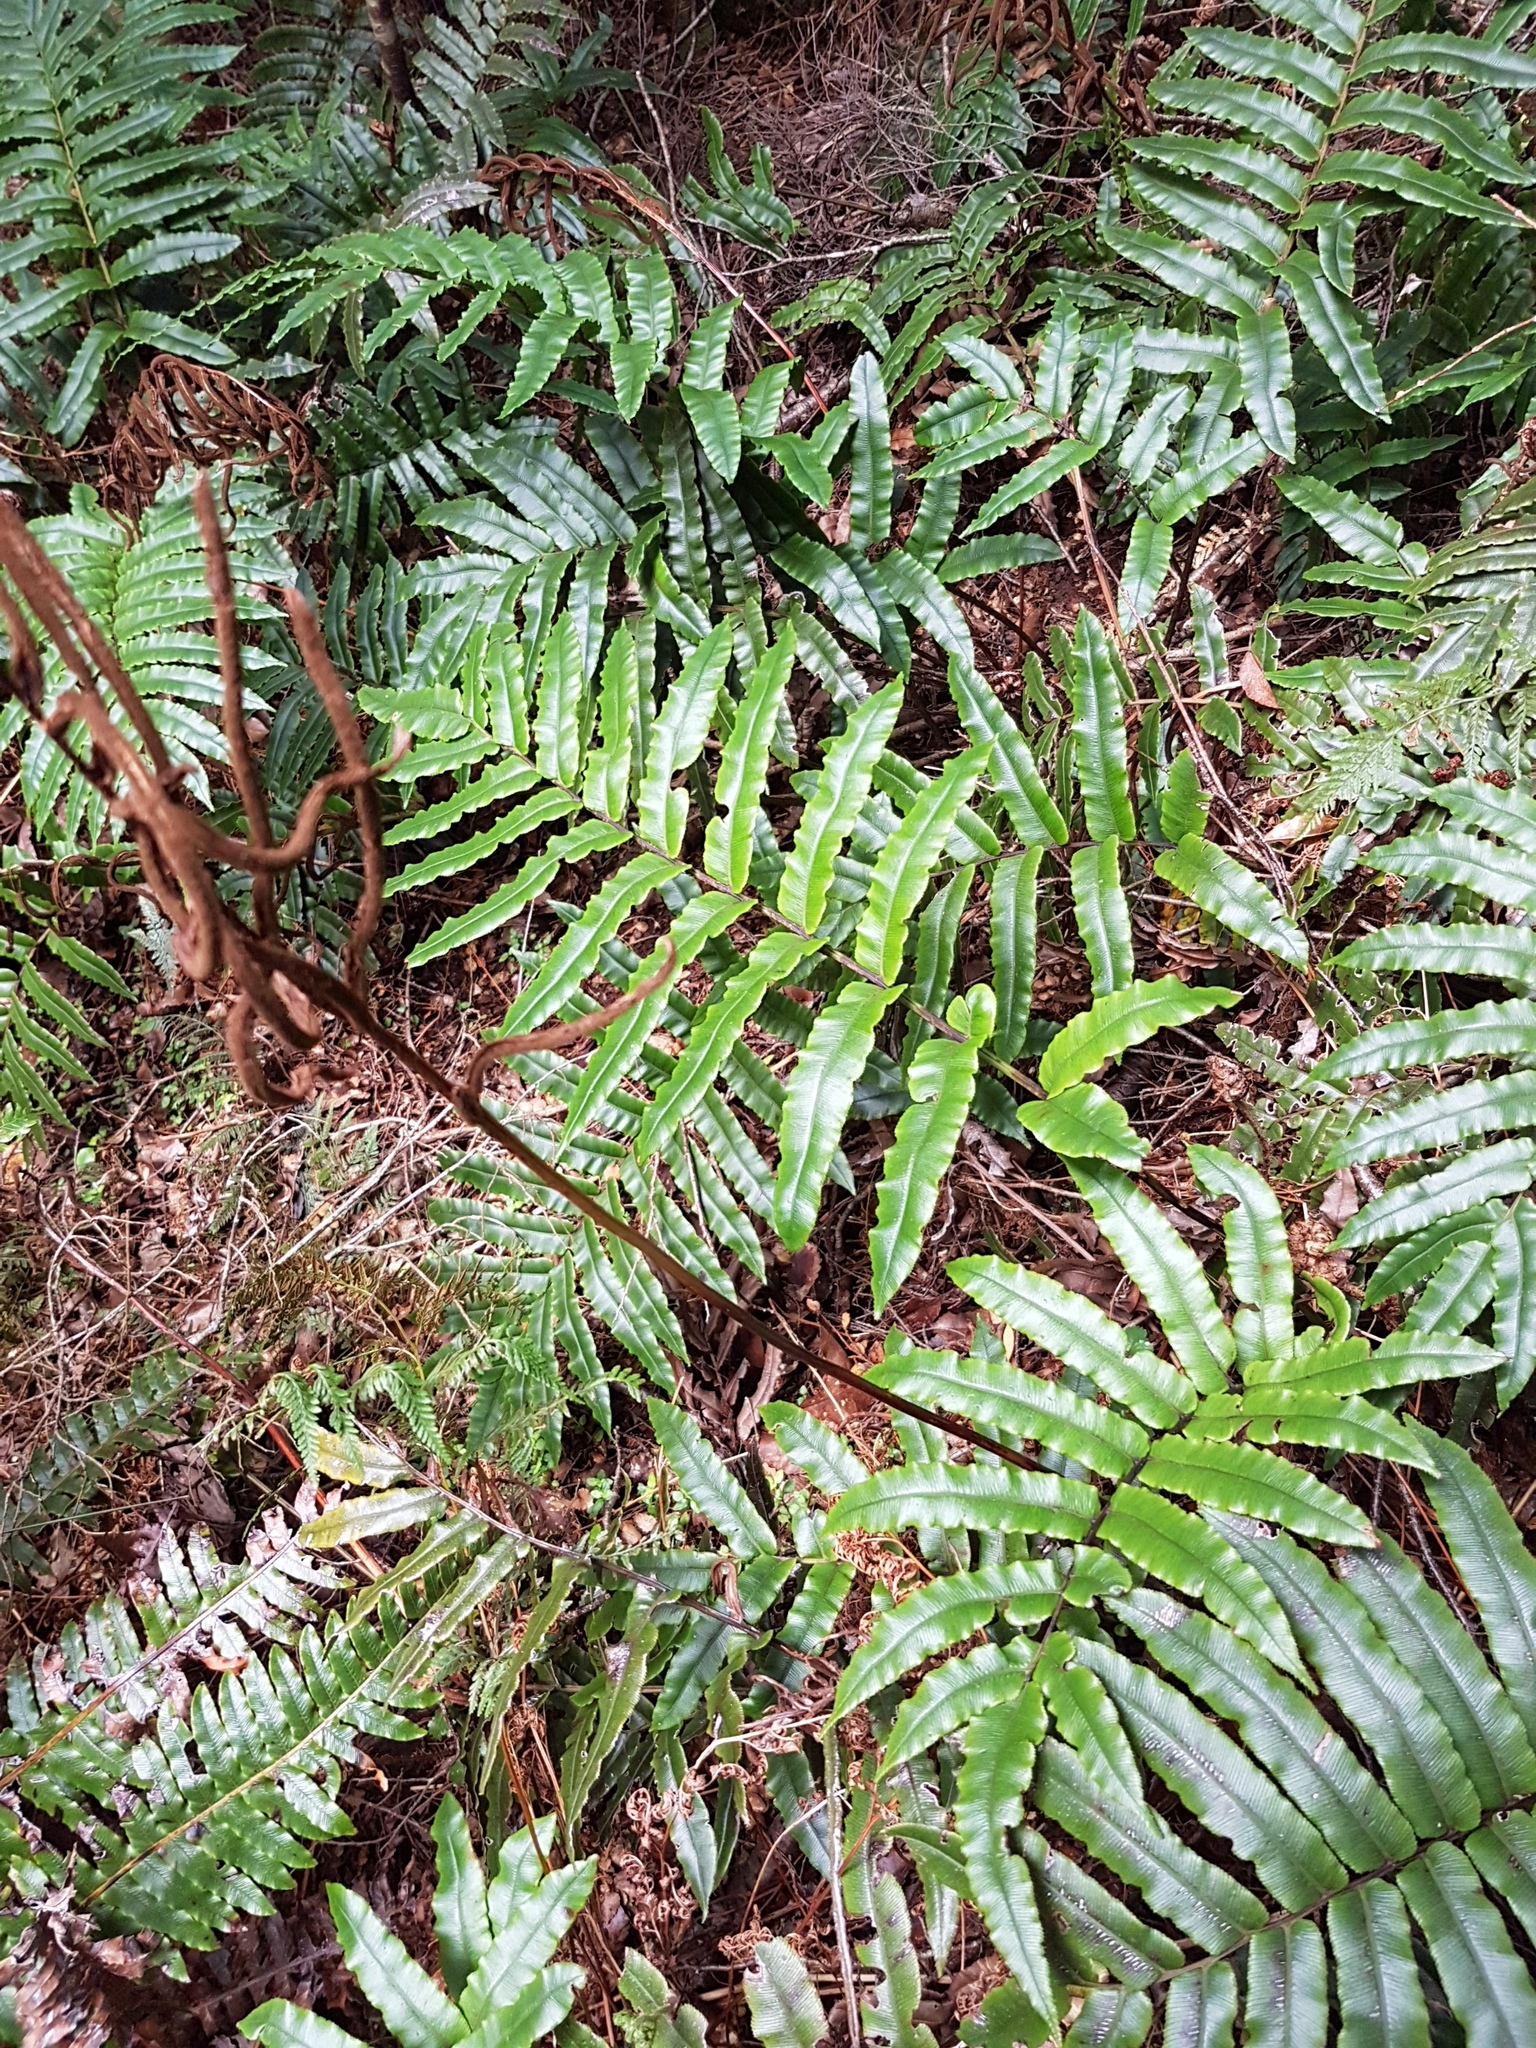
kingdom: Plantae
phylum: Tracheophyta
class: Polypodiopsida
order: Polypodiales
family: Blechnaceae
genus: Parablechnum
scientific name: Parablechnum procerum
